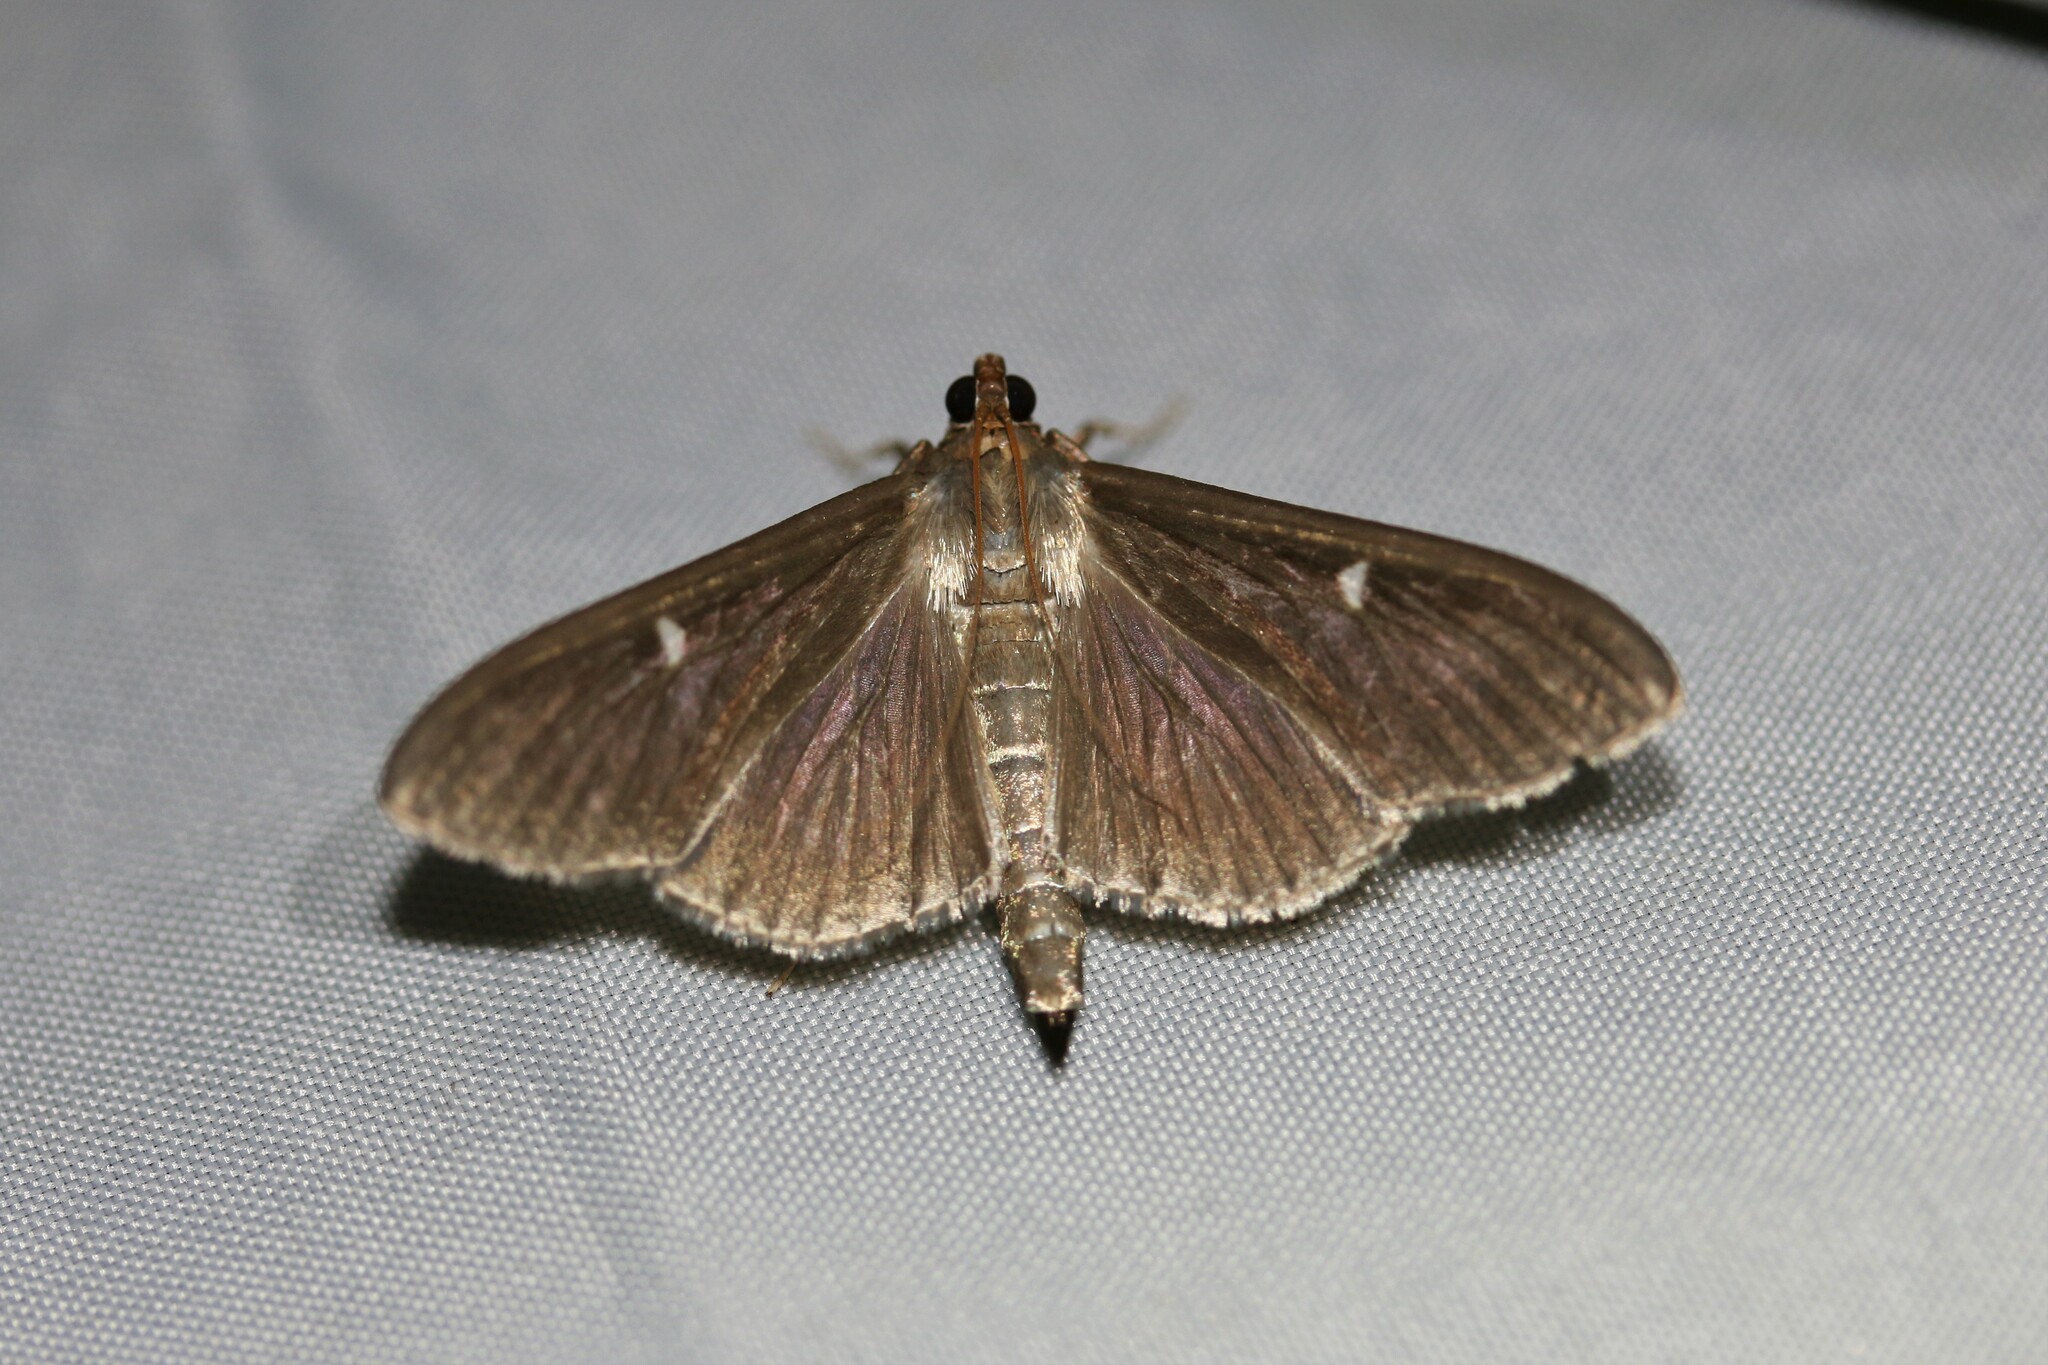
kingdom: Animalia
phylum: Arthropoda
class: Insecta
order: Lepidoptera
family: Crambidae
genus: Cydalima
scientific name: Cydalima perspectalis
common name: Box tree moth
